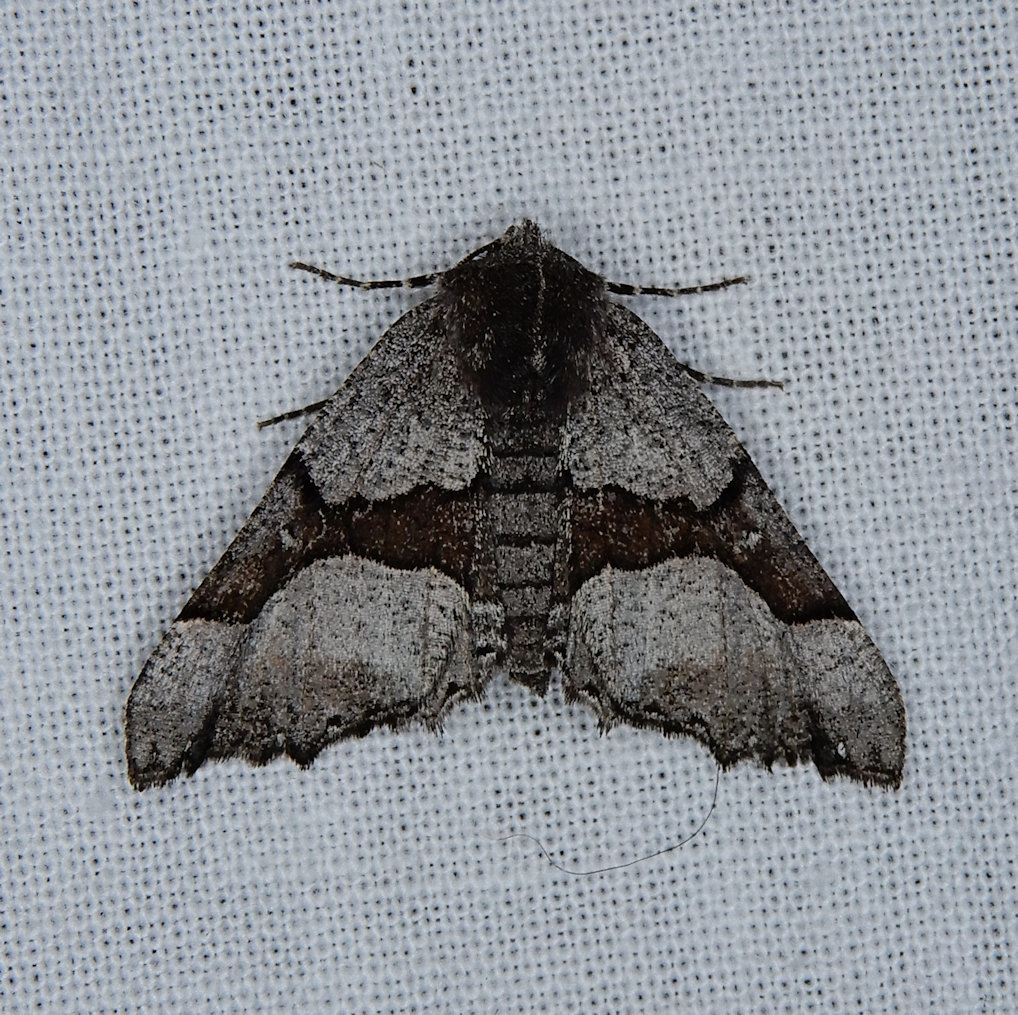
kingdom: Animalia
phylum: Arthropoda
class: Insecta
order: Lepidoptera
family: Geometridae
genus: Pero
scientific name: Pero behrensaria
